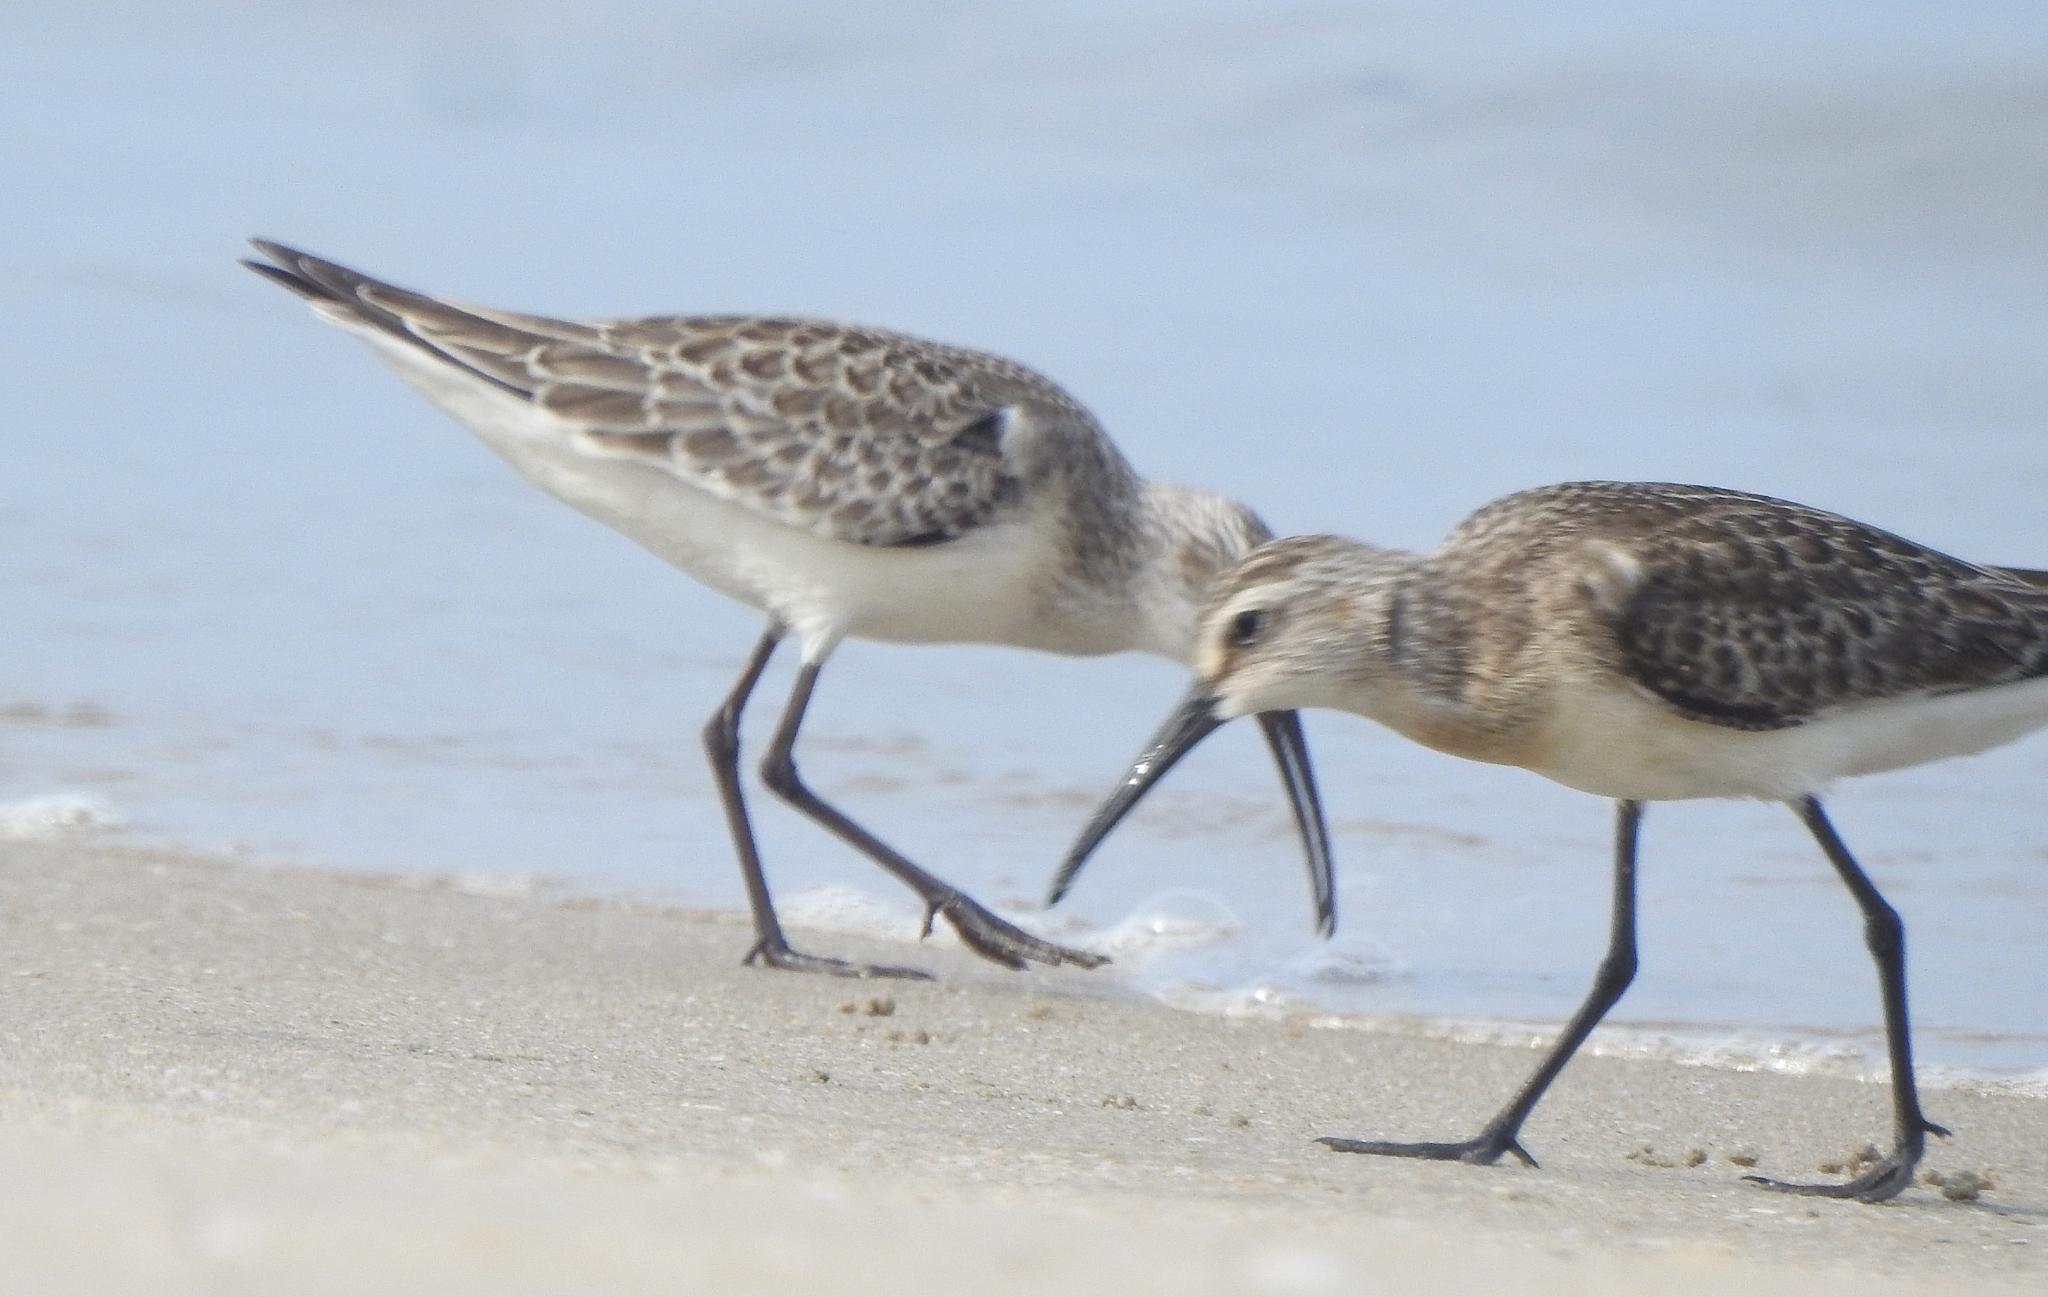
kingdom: Animalia
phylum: Chordata
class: Aves
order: Charadriiformes
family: Scolopacidae
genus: Calidris
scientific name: Calidris ferruginea
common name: Curlew sandpiper
